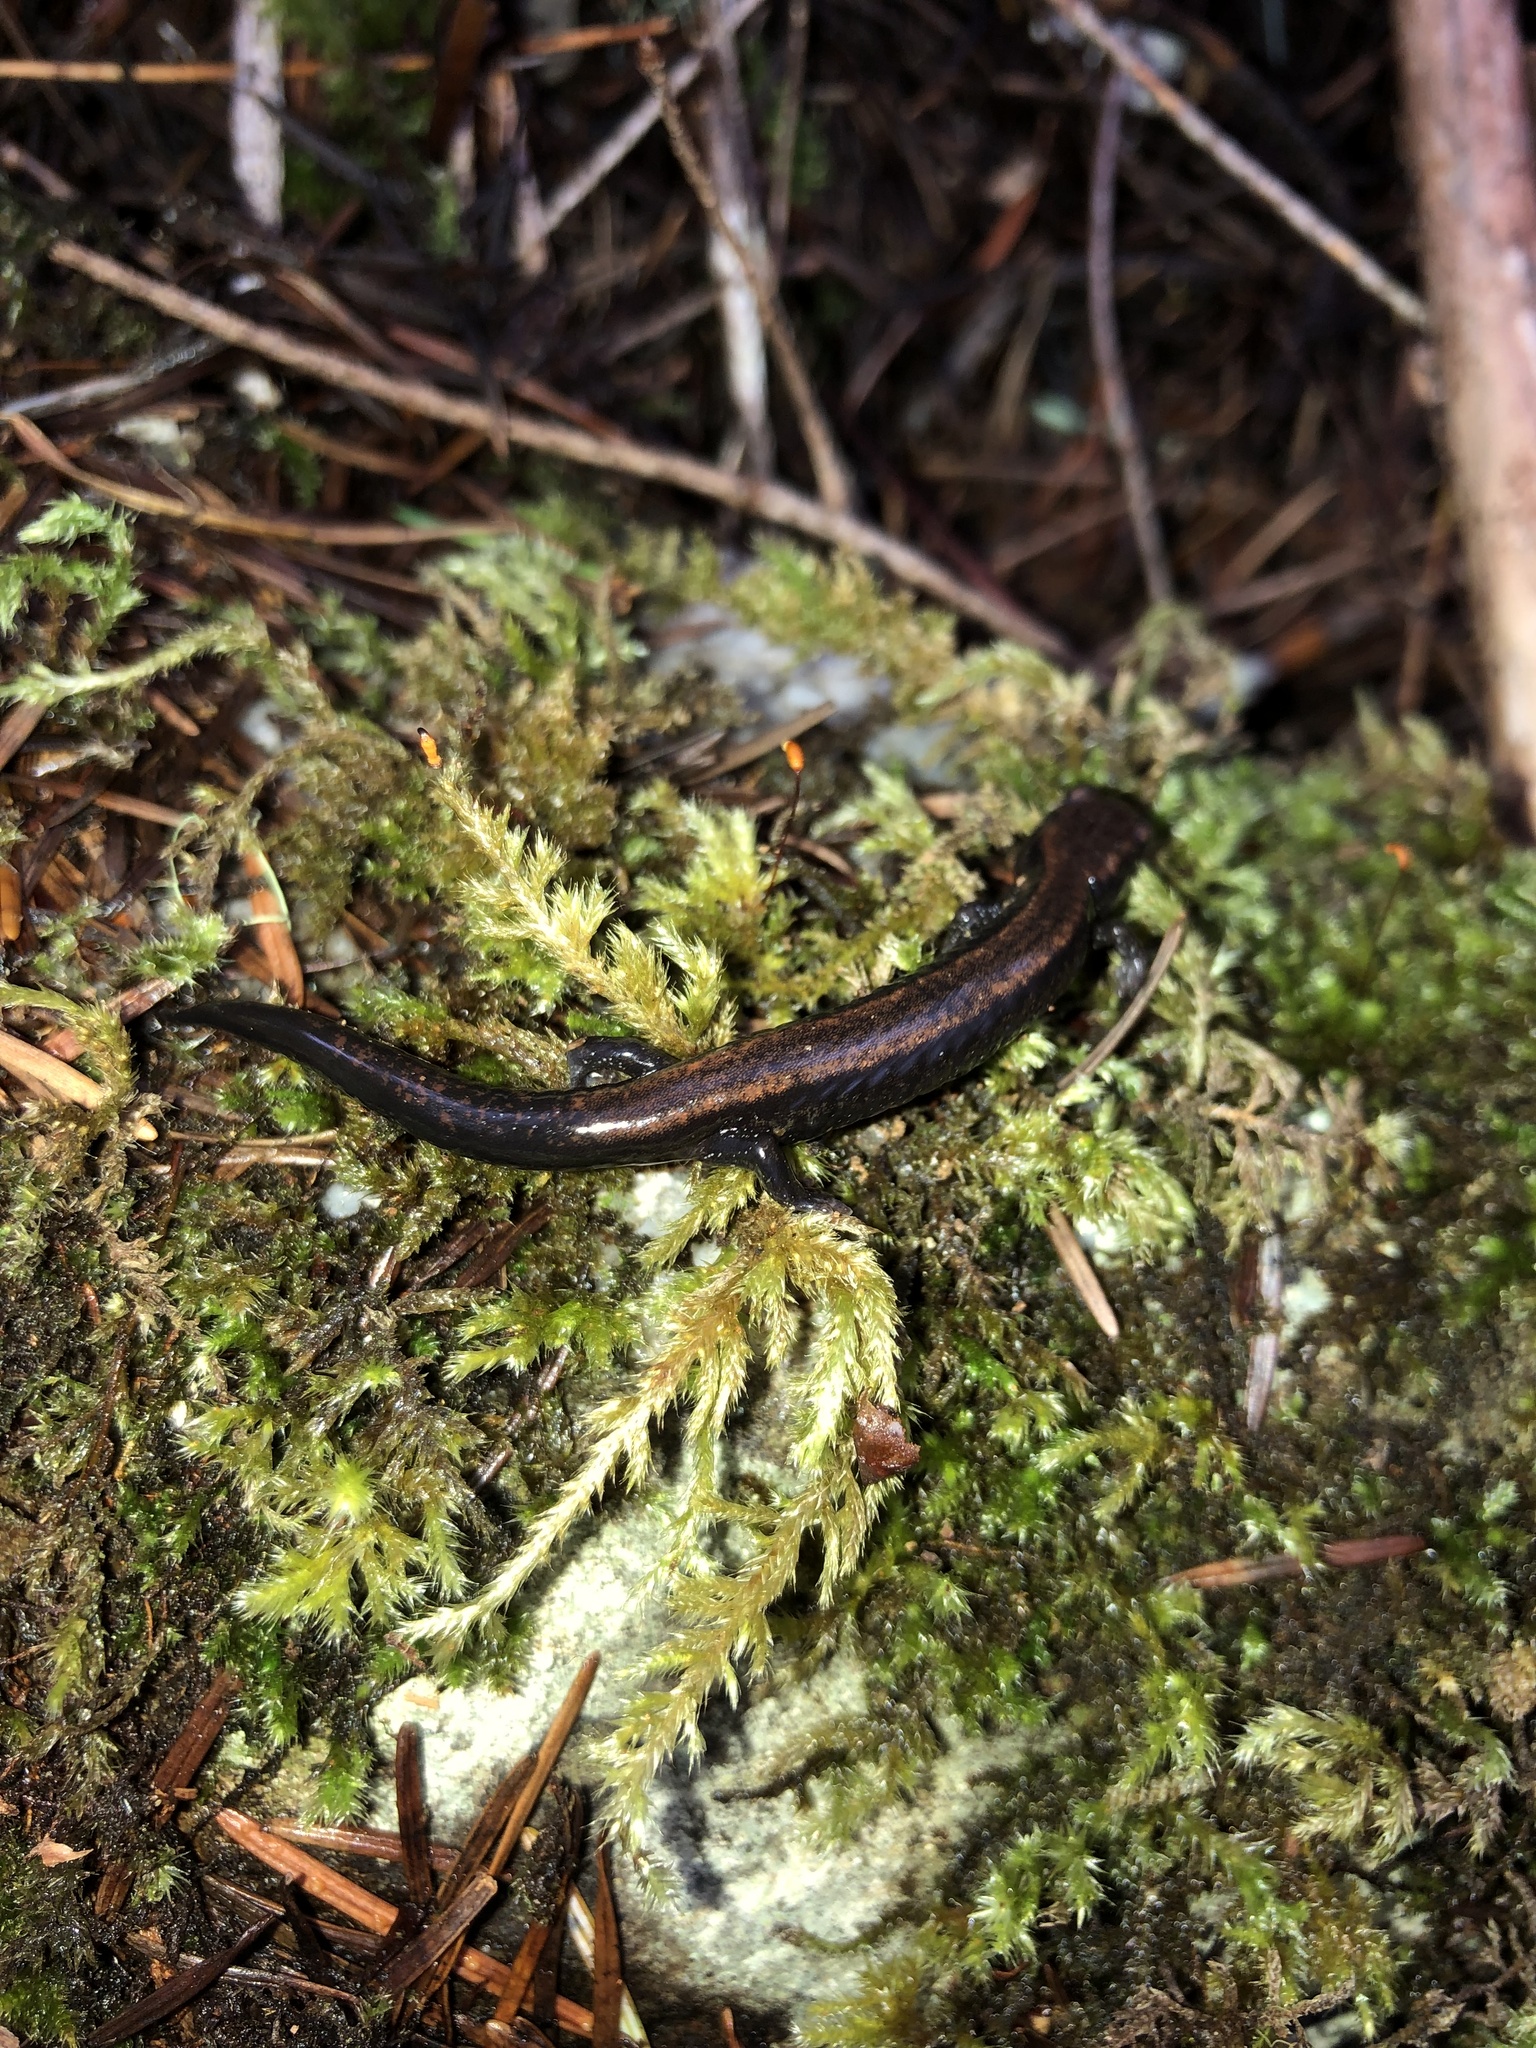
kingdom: Animalia
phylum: Chordata
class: Amphibia
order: Caudata
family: Plethodontidae
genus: Plethodon
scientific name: Plethodon elongatus
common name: Del norte salamander
